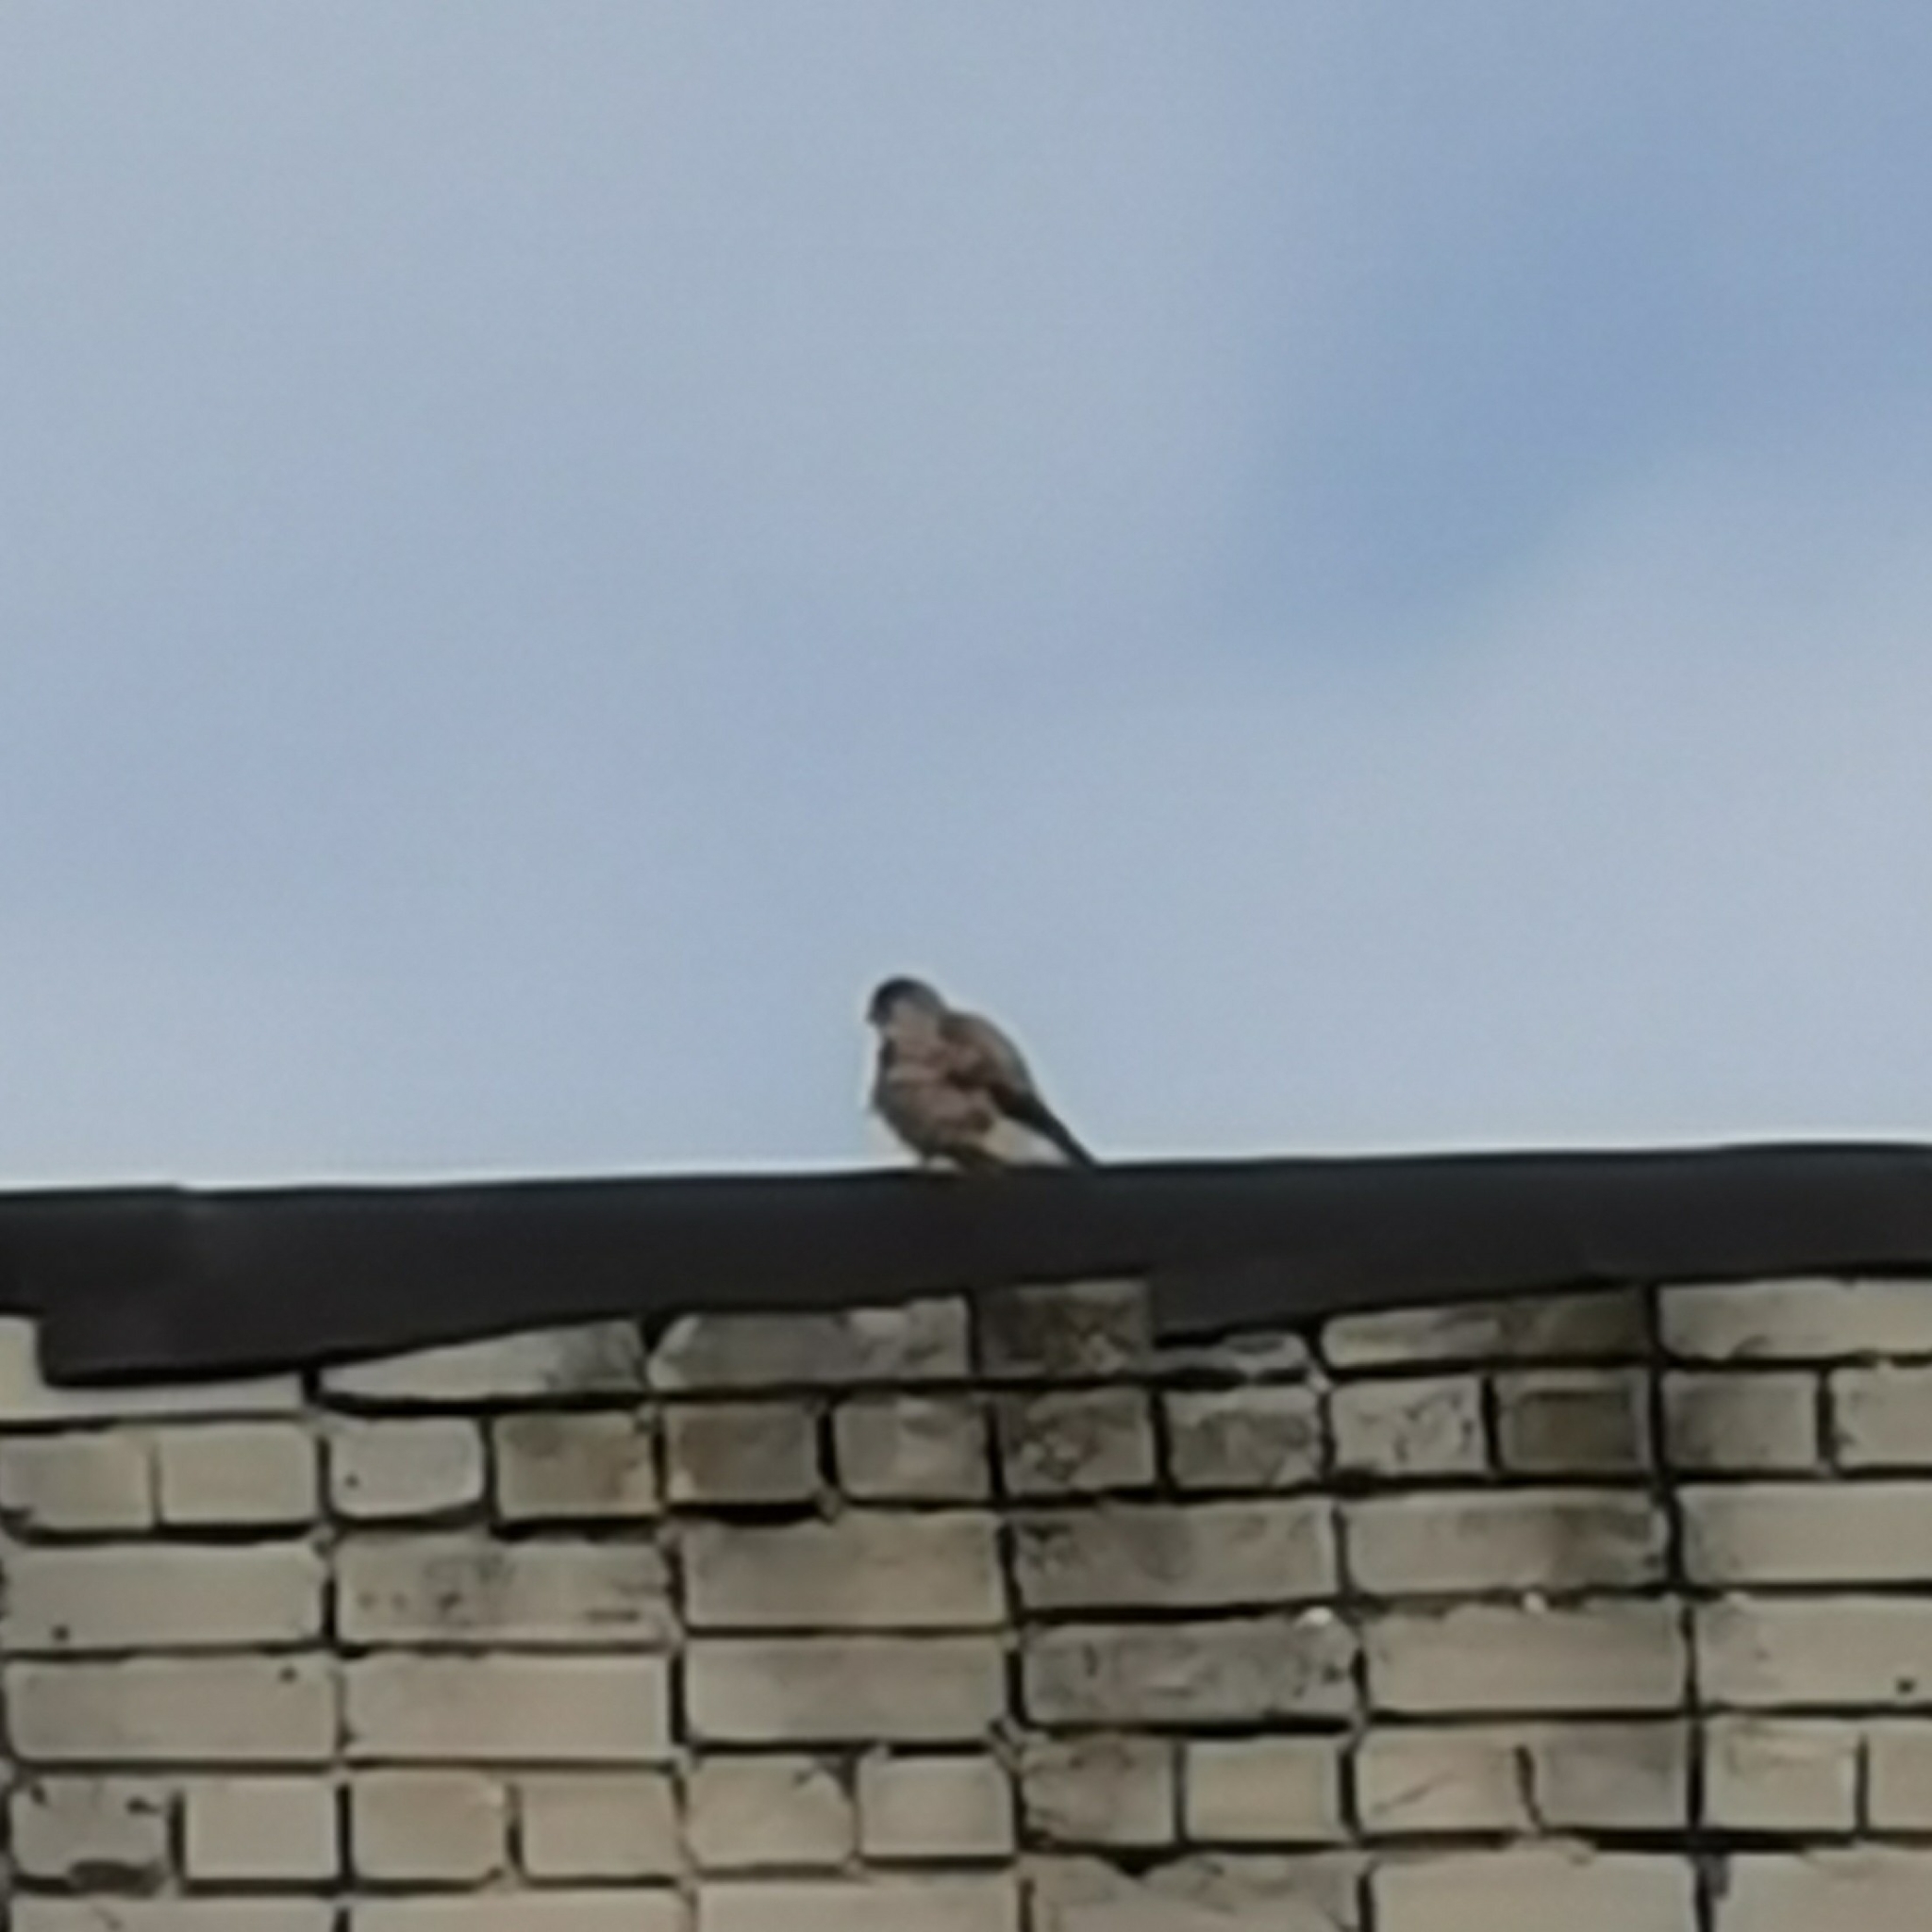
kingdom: Animalia
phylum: Chordata
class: Aves
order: Falconiformes
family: Falconidae
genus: Falco
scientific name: Falco tinnunculus
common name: Common kestrel
